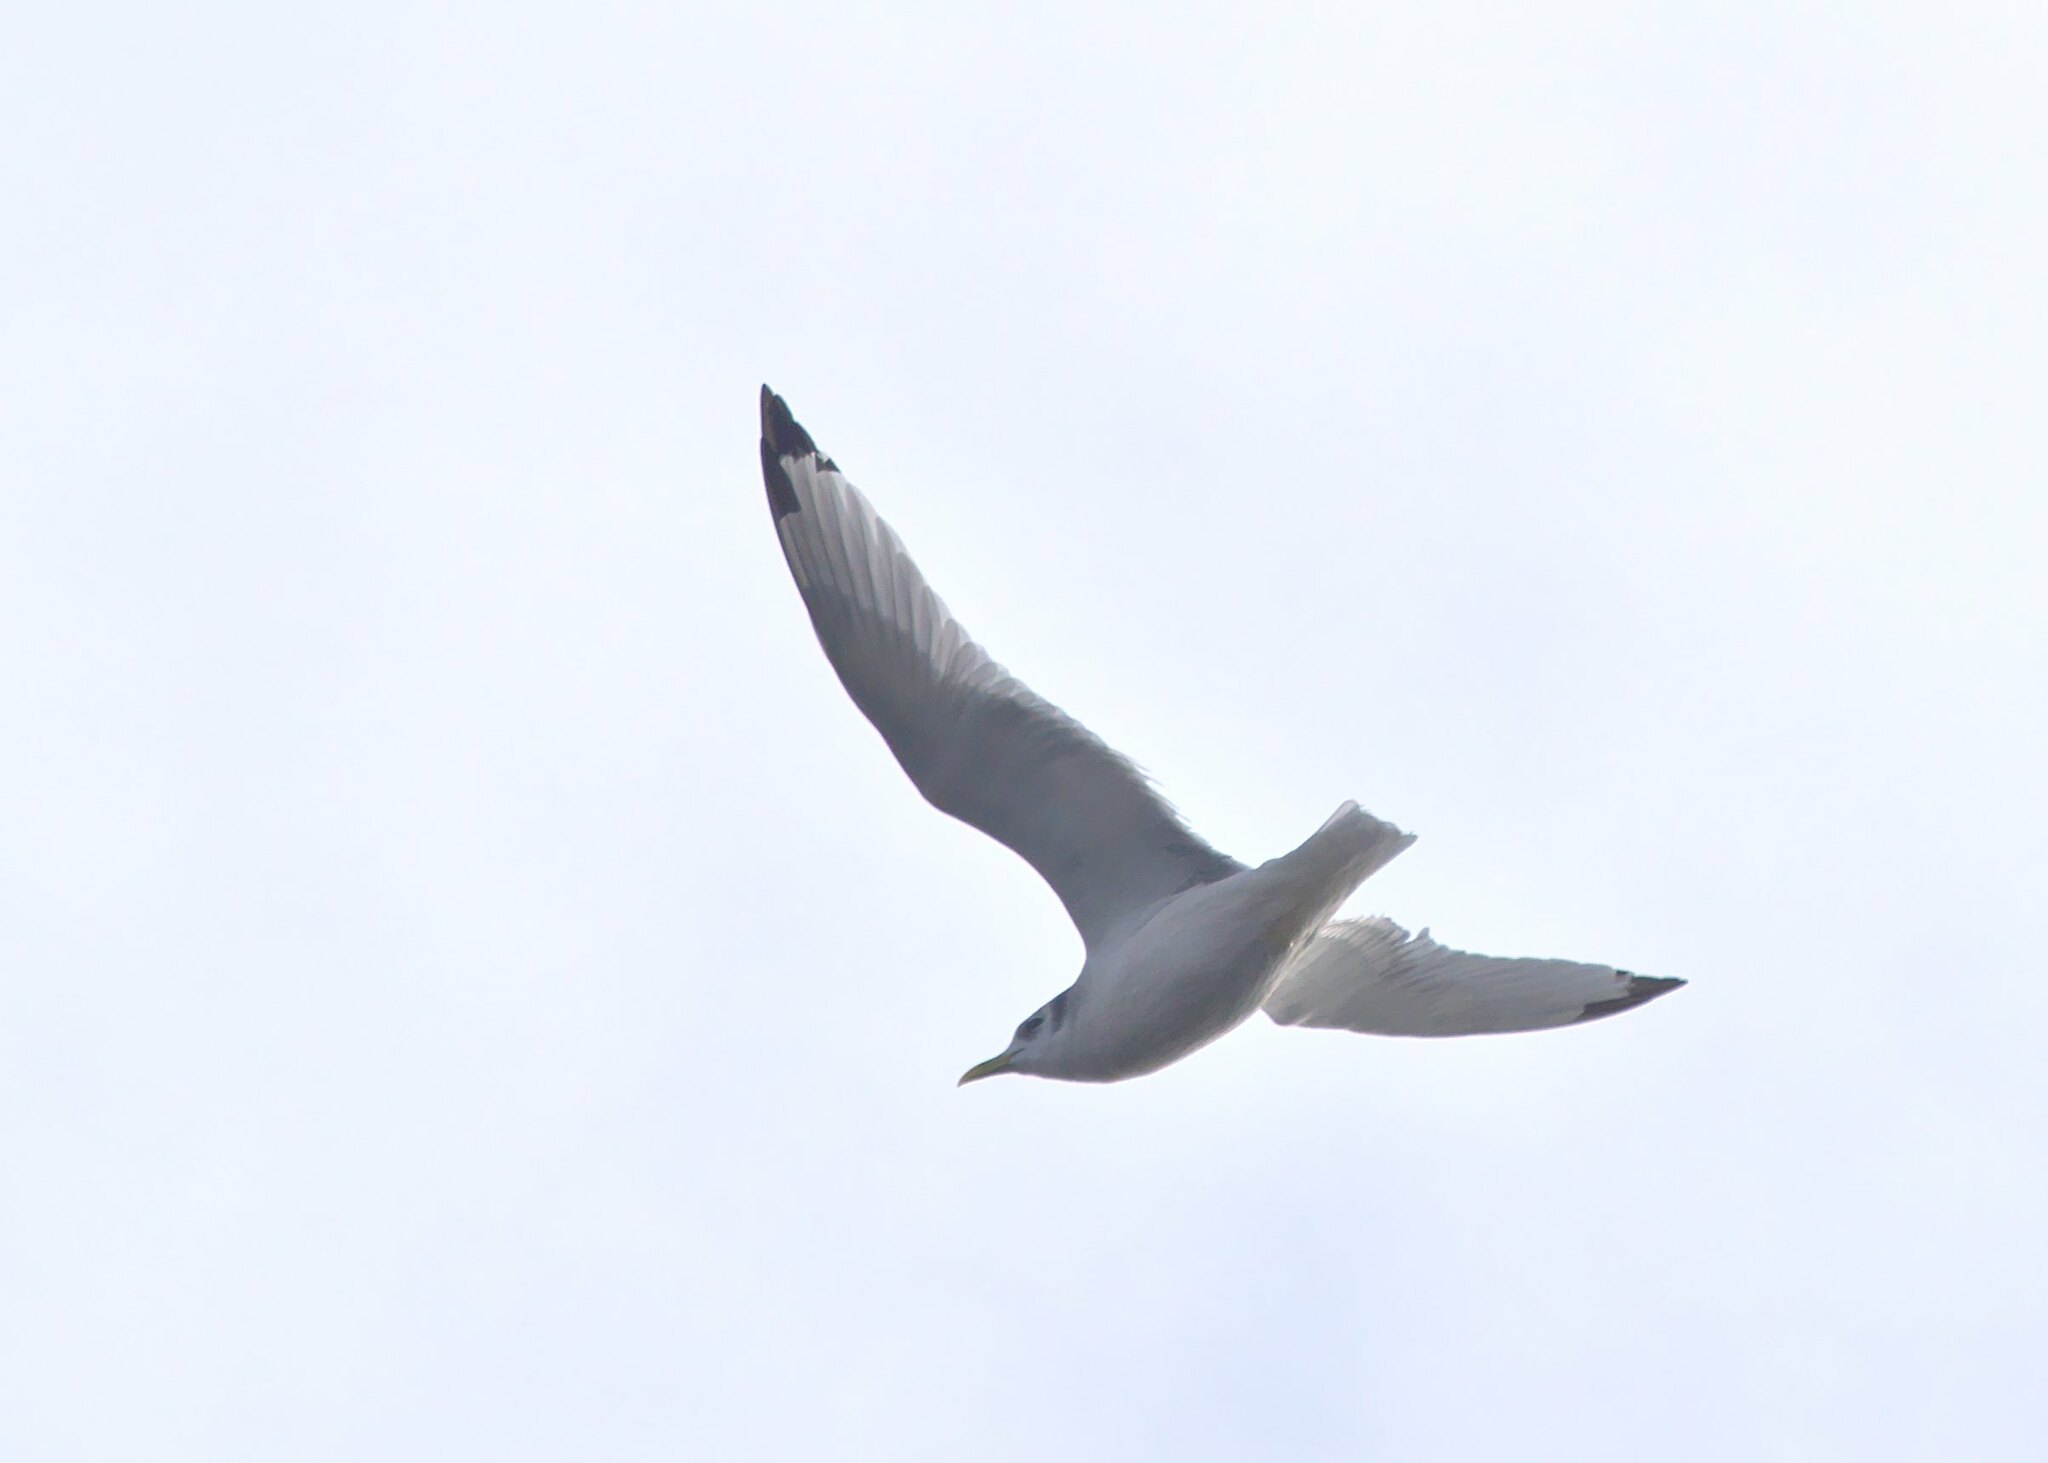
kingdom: Animalia
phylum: Chordata
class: Aves
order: Charadriiformes
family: Laridae
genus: Rissa
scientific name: Rissa tridactyla
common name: Black-legged kittiwake
